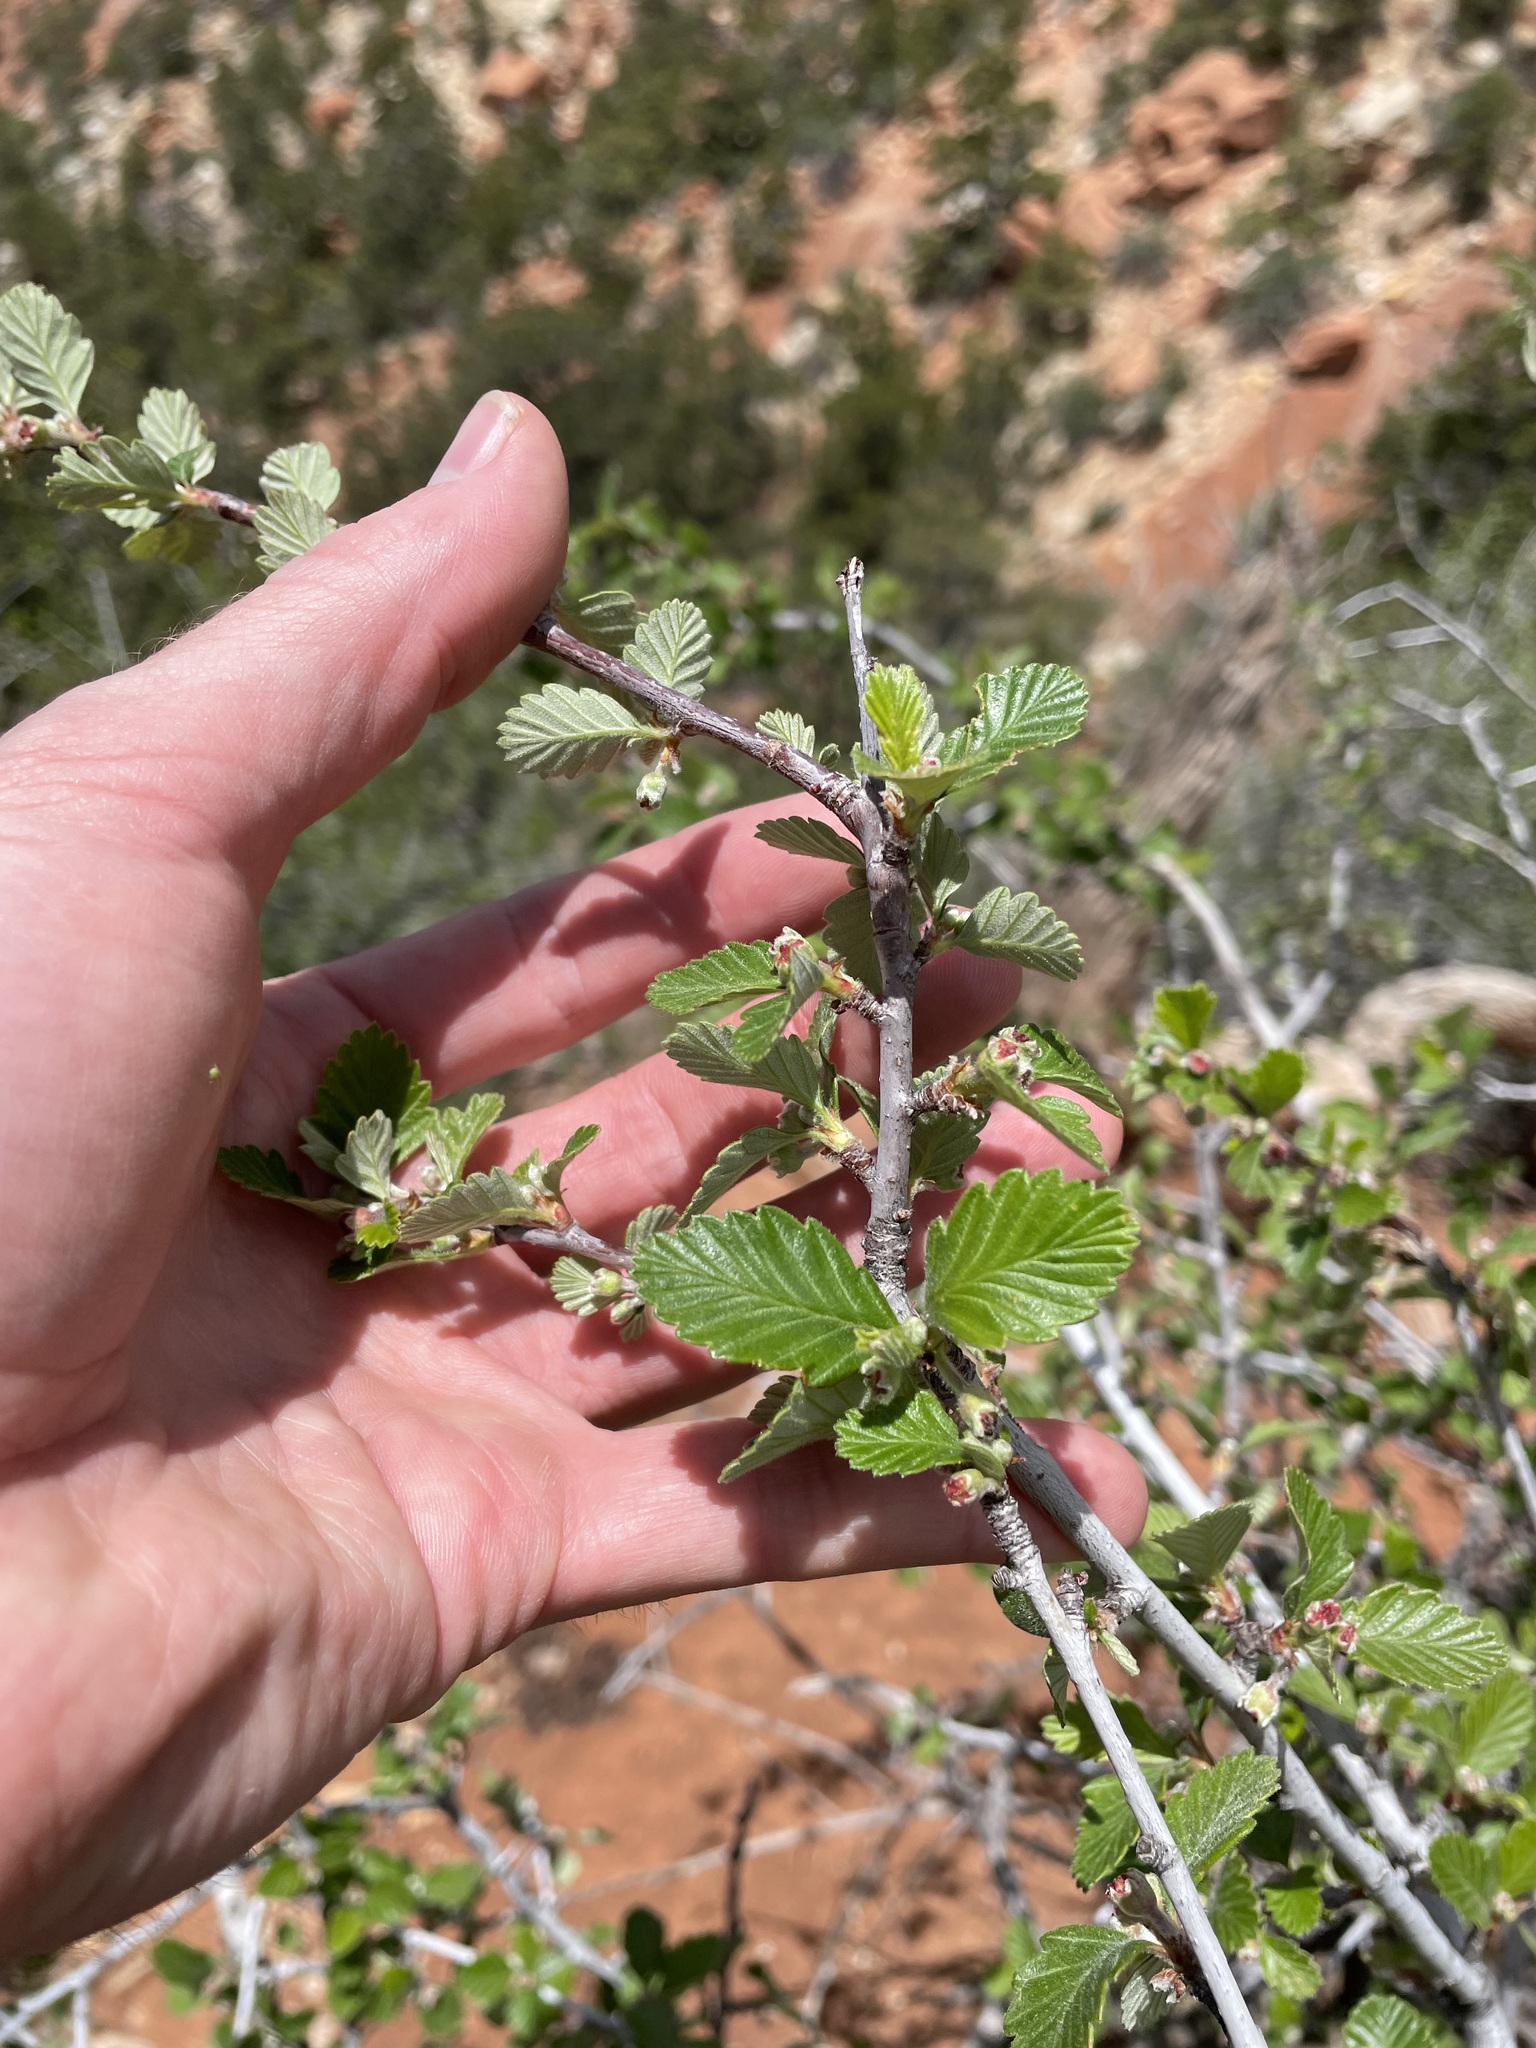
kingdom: Plantae
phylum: Tracheophyta
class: Magnoliopsida
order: Rosales
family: Rosaceae
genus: Cercocarpus
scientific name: Cercocarpus montanus
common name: Alder-leaf cercocarpus
